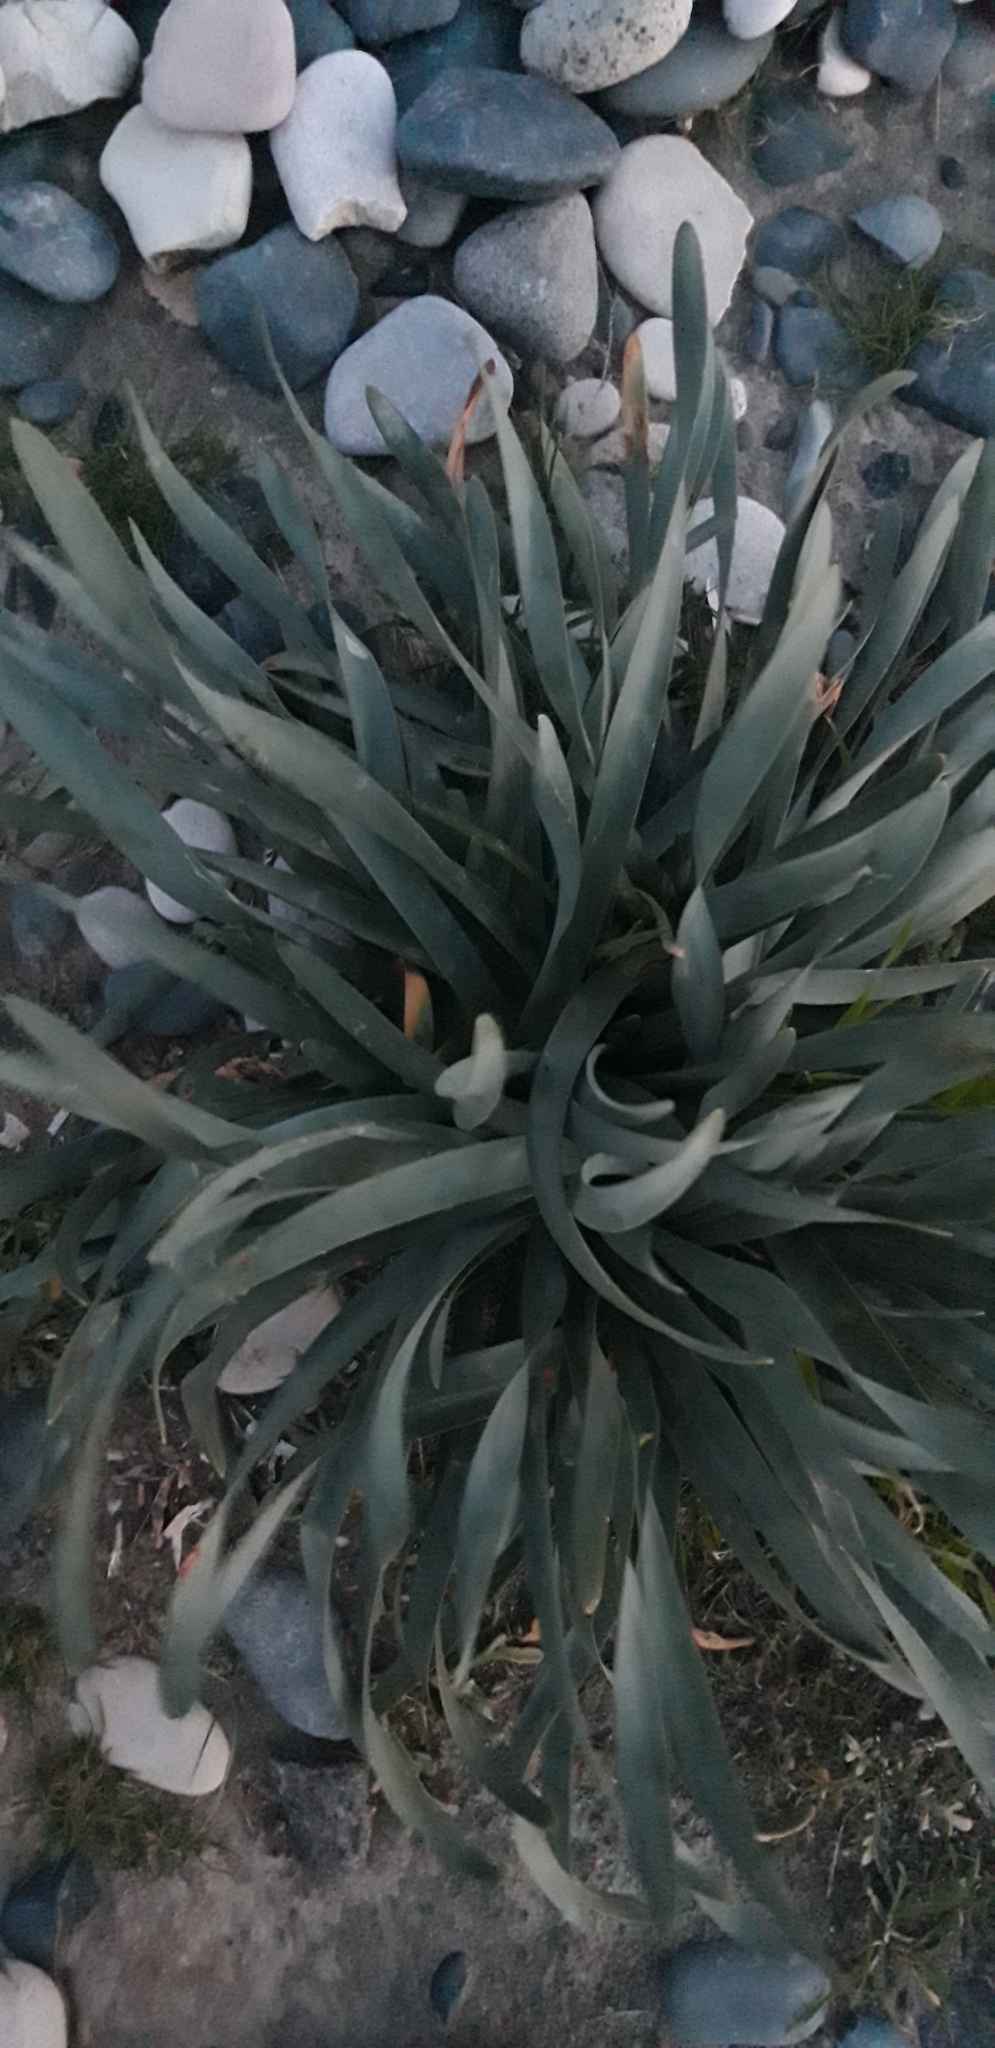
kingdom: Plantae
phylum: Tracheophyta
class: Liliopsida
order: Asparagales
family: Amaryllidaceae
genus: Pancratium
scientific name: Pancratium maritimum
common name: Sea-daffodil
